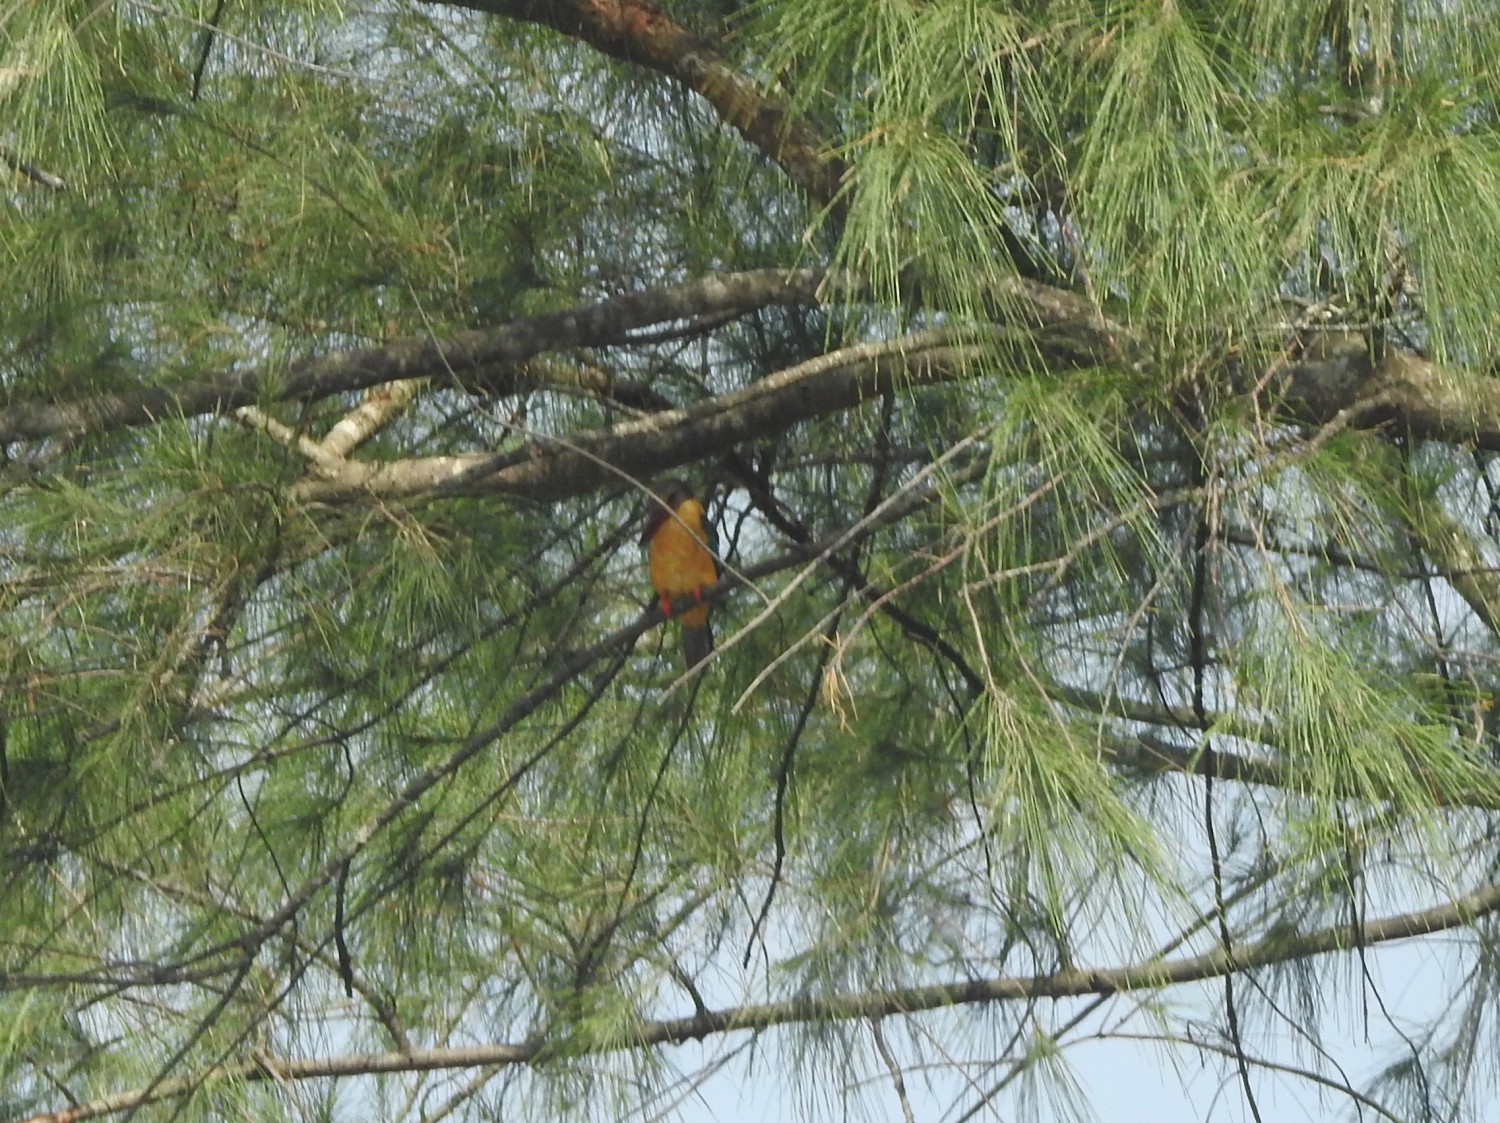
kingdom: Animalia
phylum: Chordata
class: Aves
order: Coraciiformes
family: Alcedinidae
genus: Pelargopsis
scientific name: Pelargopsis capensis
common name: Stork-billed kingfisher
